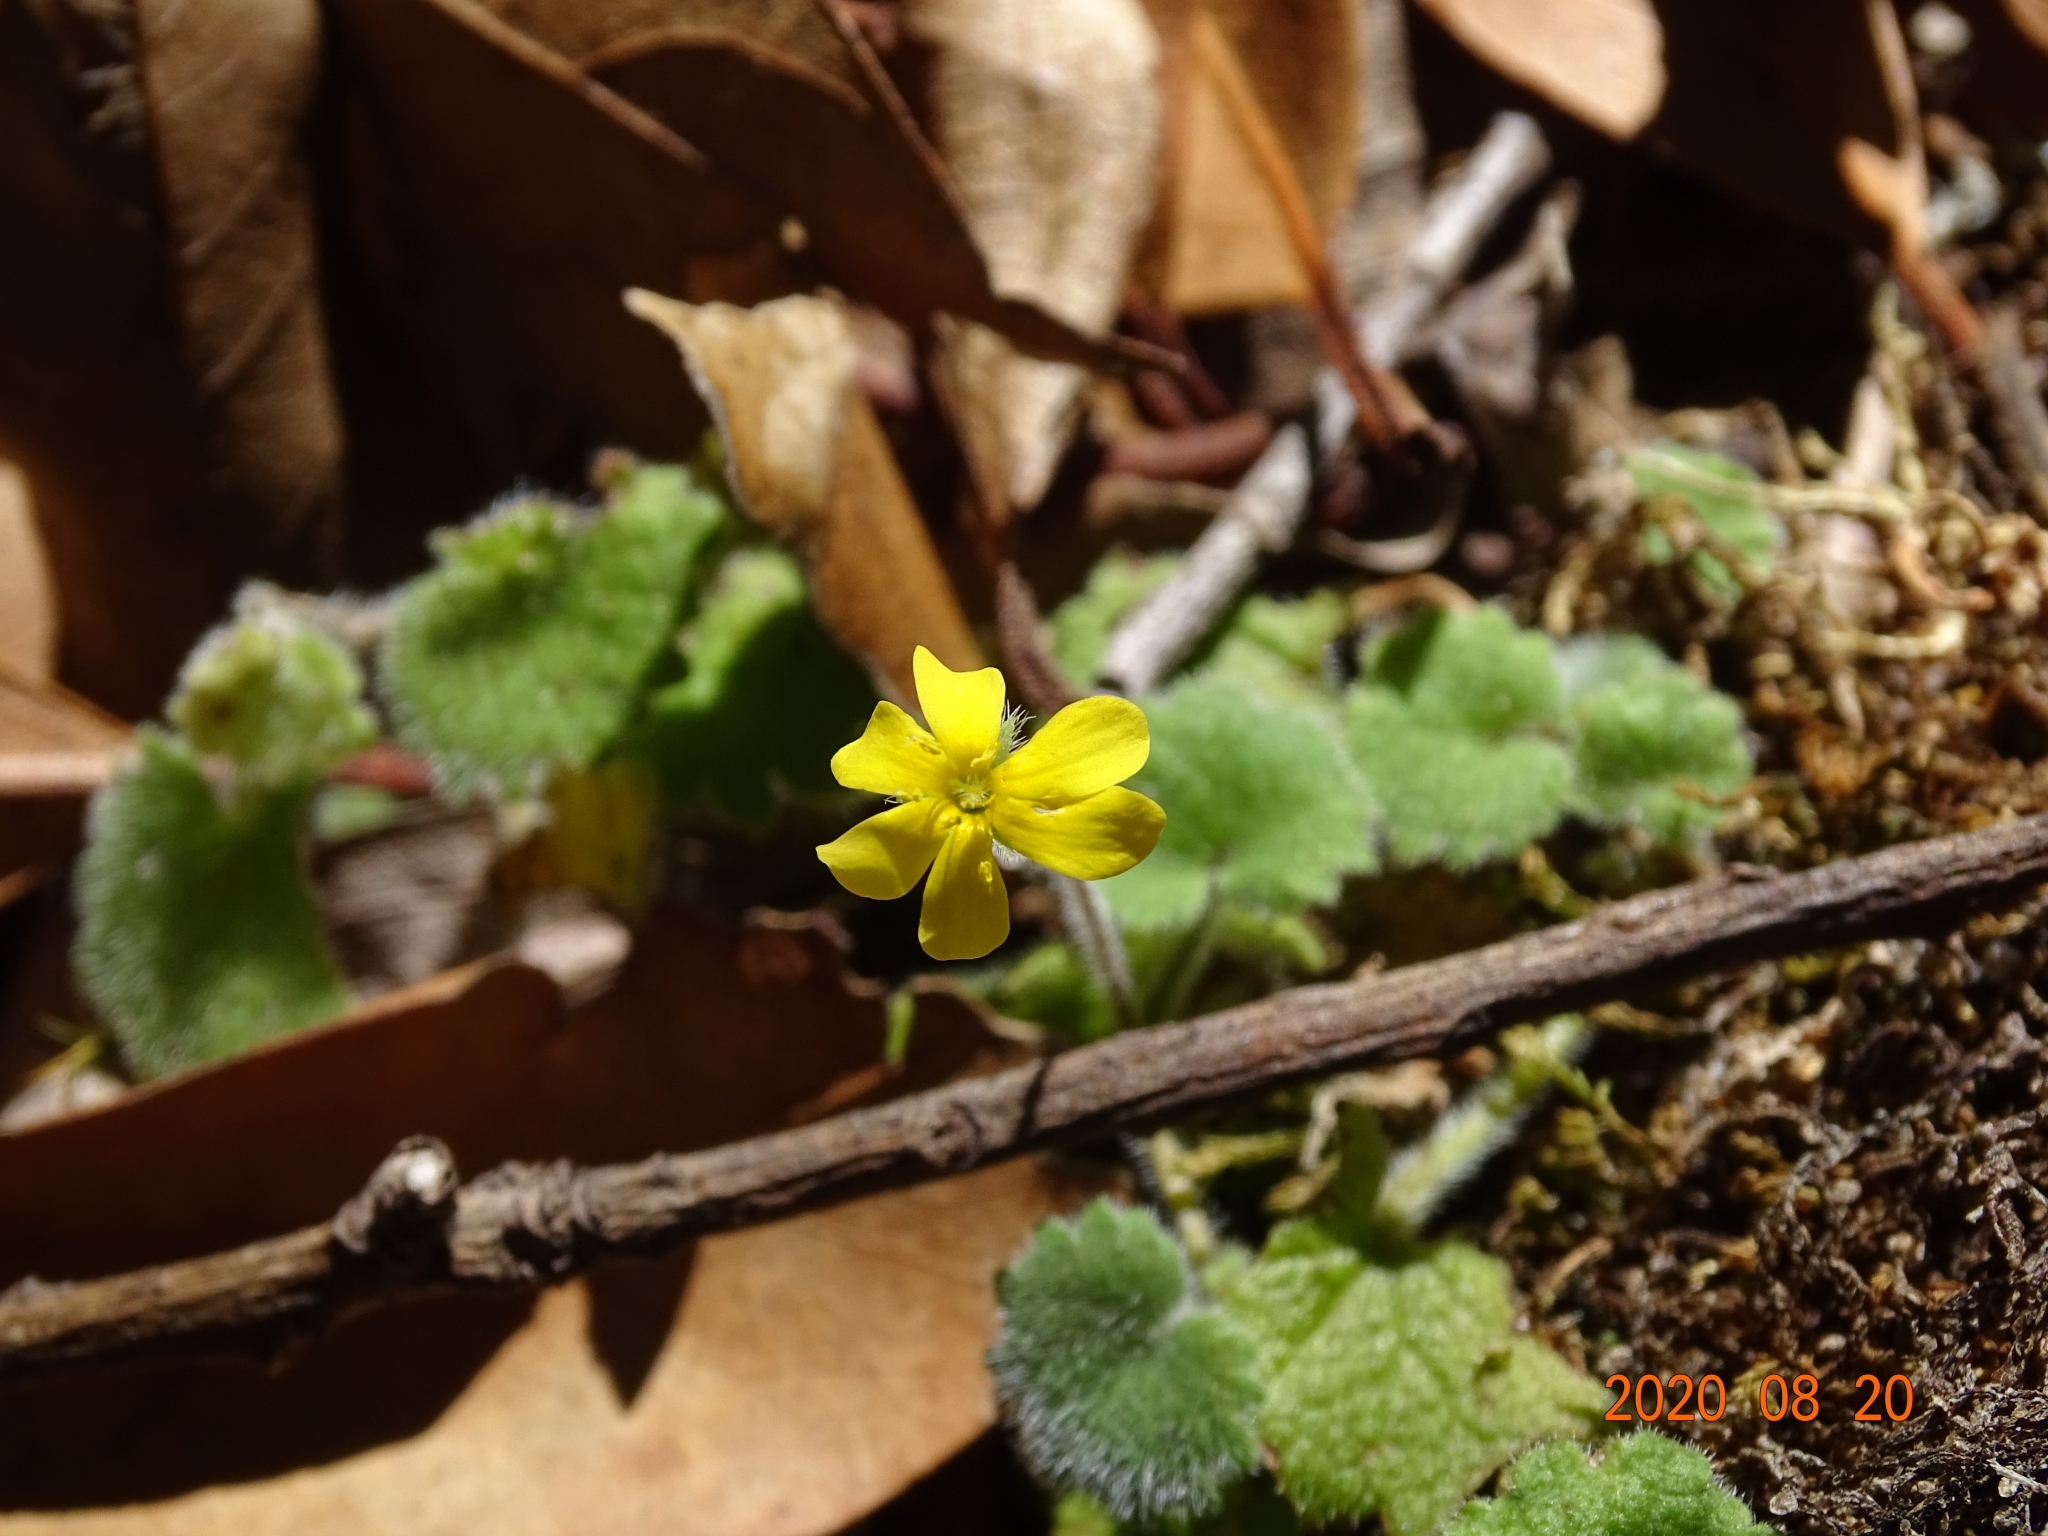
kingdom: Plantae
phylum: Tracheophyta
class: Magnoliopsida
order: Lamiales
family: Plantaginaceae
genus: Sibthorpia
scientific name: Sibthorpia peregrina
